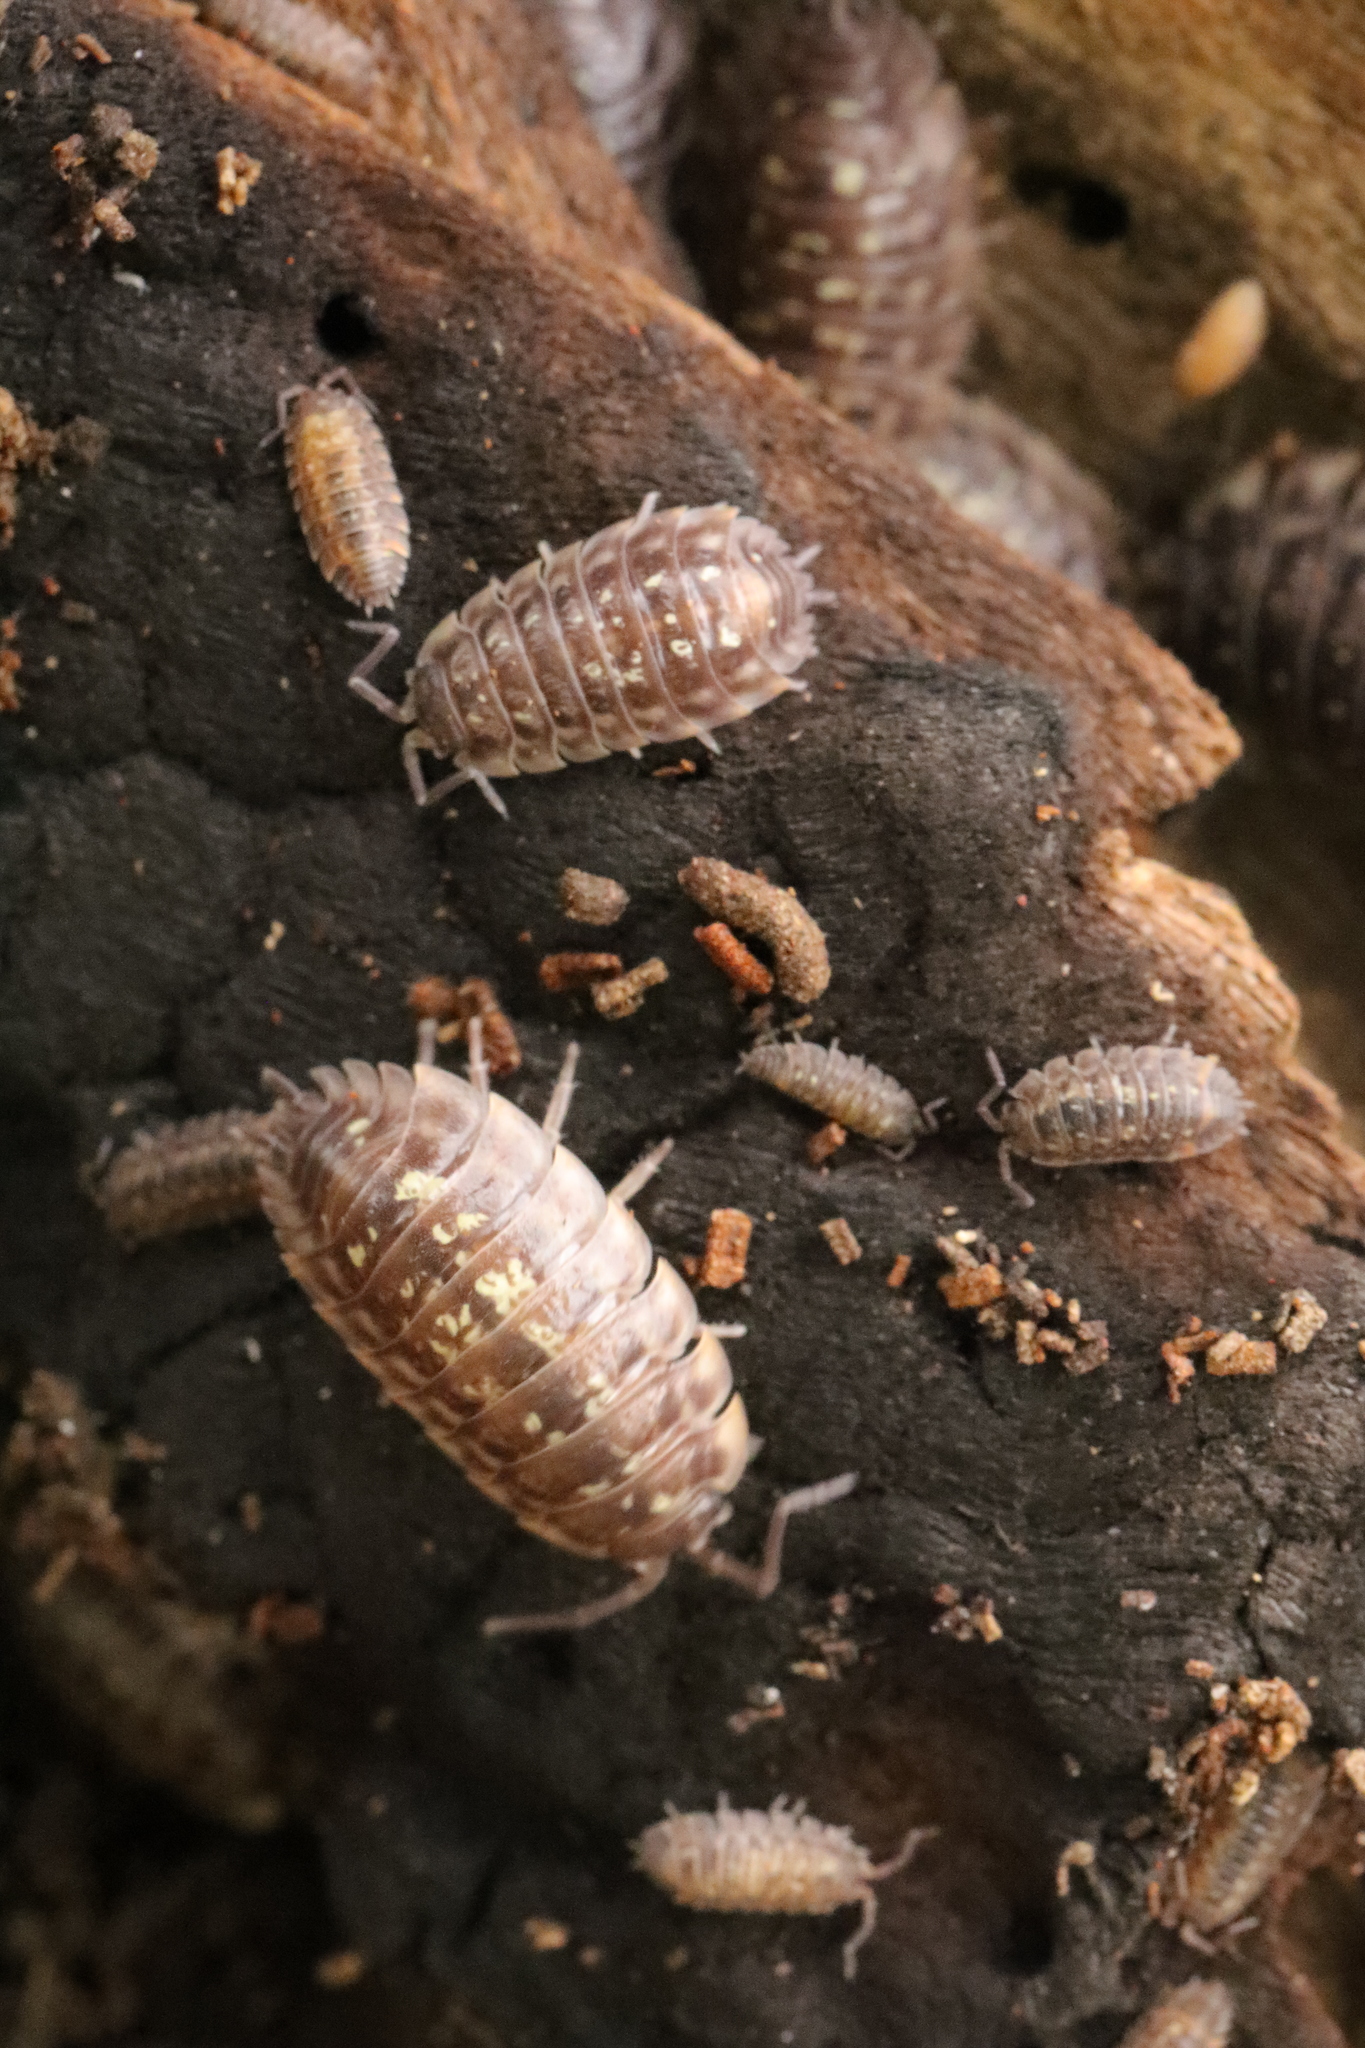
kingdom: Animalia
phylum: Arthropoda
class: Malacostraca
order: Isopoda
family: Oniscidae
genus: Oniscus
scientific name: Oniscus asellus
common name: Common shiny woodlouse
